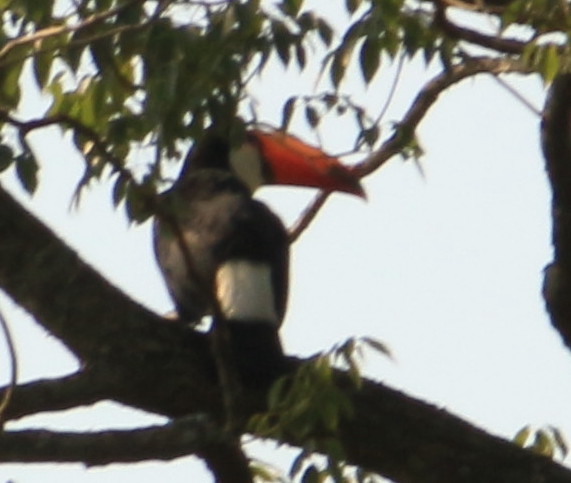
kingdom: Animalia
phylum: Chordata
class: Aves
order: Piciformes
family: Ramphastidae
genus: Ramphastos
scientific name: Ramphastos toco
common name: Toco toucan
